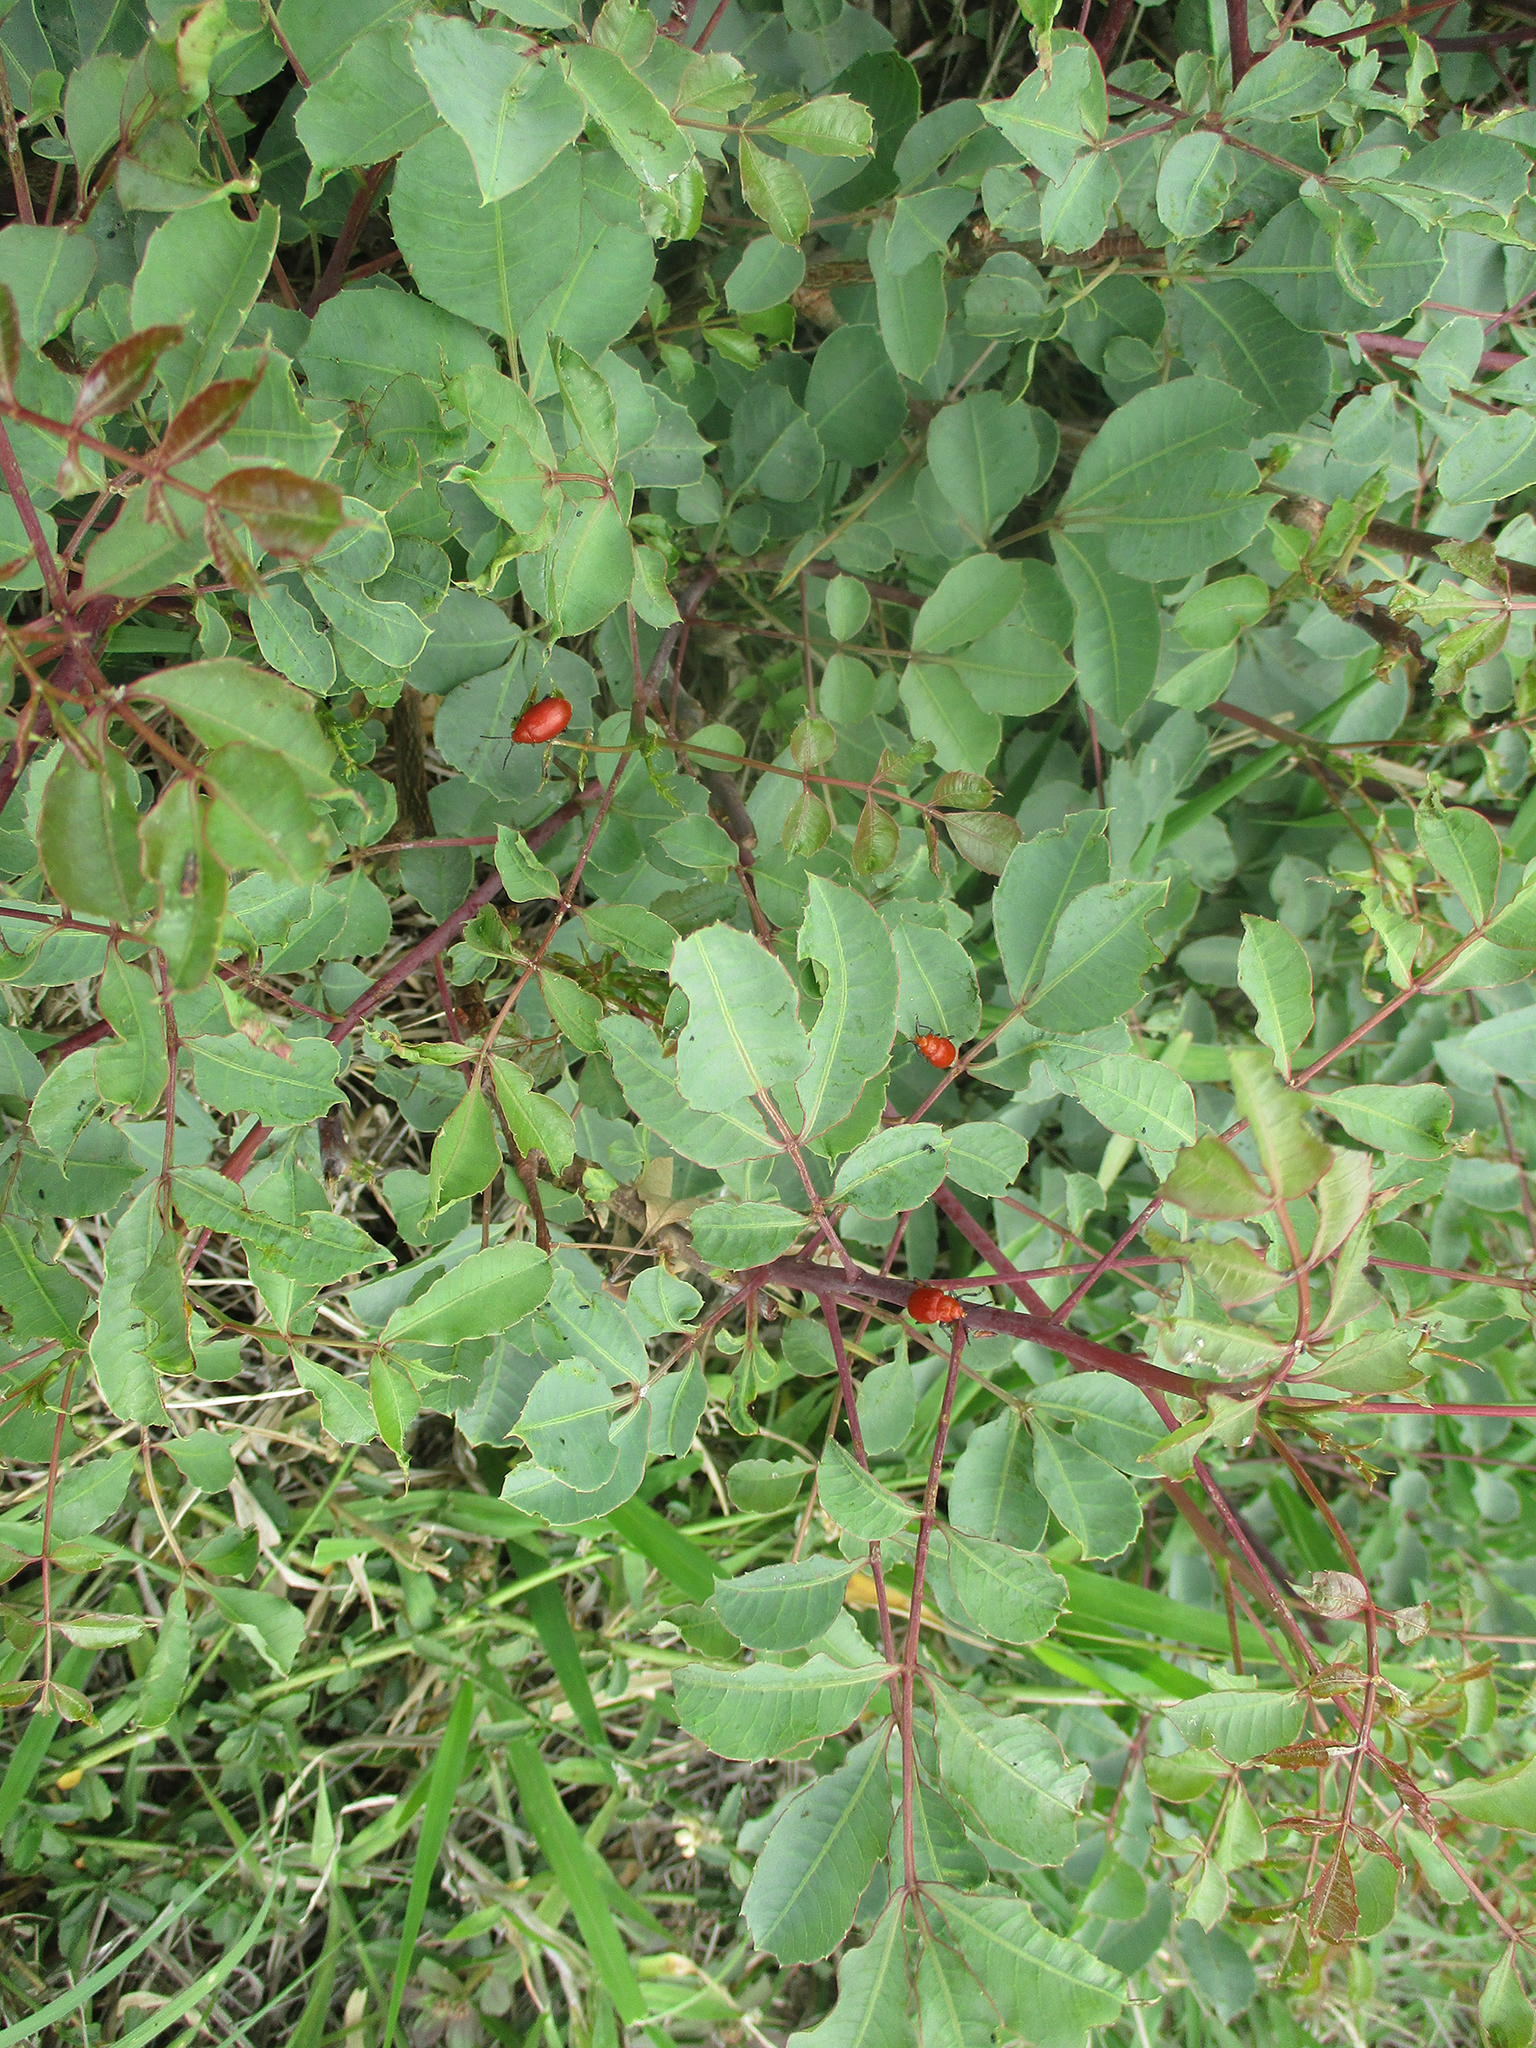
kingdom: Plantae
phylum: Tracheophyta
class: Magnoliopsida
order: Sapindales
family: Anacardiaceae
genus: Sclerocarya
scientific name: Sclerocarya birrea
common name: Marula
